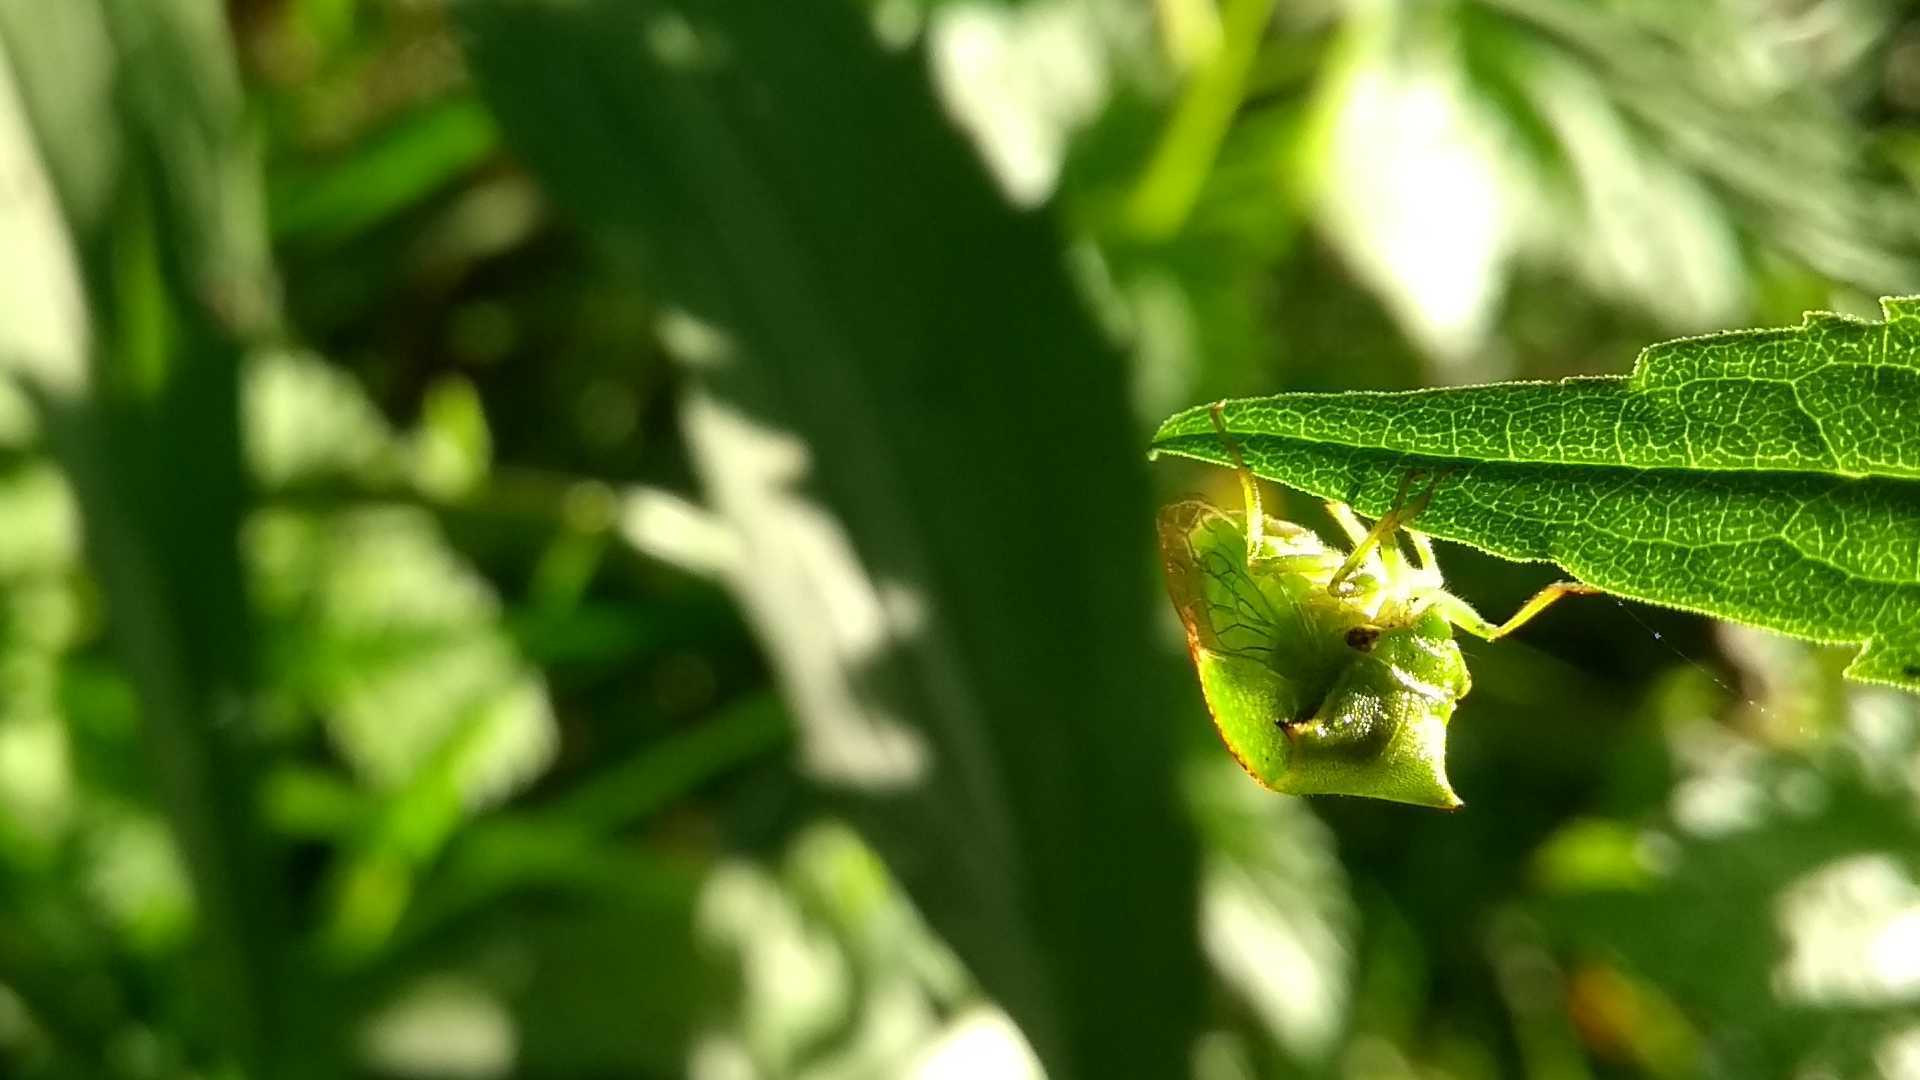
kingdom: Animalia
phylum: Arthropoda
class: Insecta
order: Hemiptera
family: Membracidae
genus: Stictocephala
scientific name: Stictocephala bisonia
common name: American buffalo treehopper
